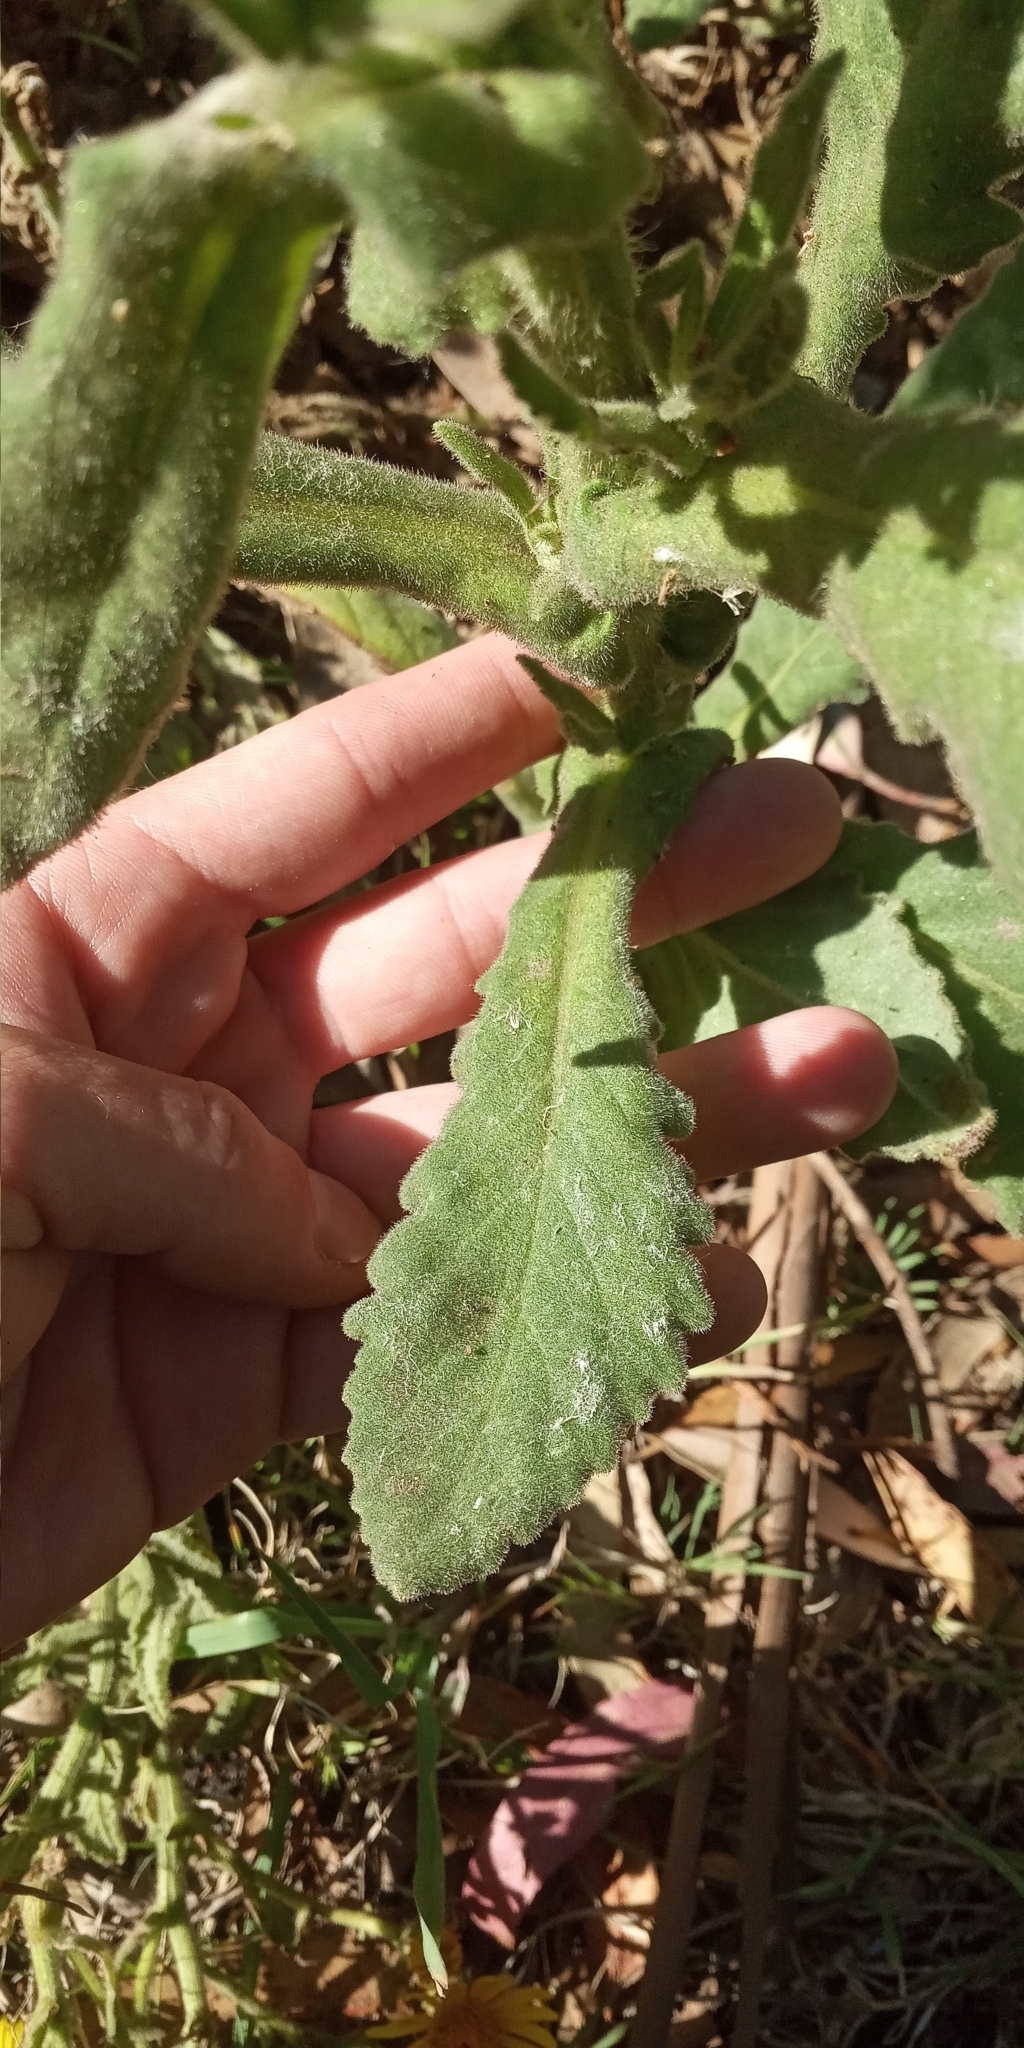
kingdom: Plantae
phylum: Tracheophyta
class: Magnoliopsida
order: Asterales
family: Asteraceae
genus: Senecio
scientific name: Senecio selloi
